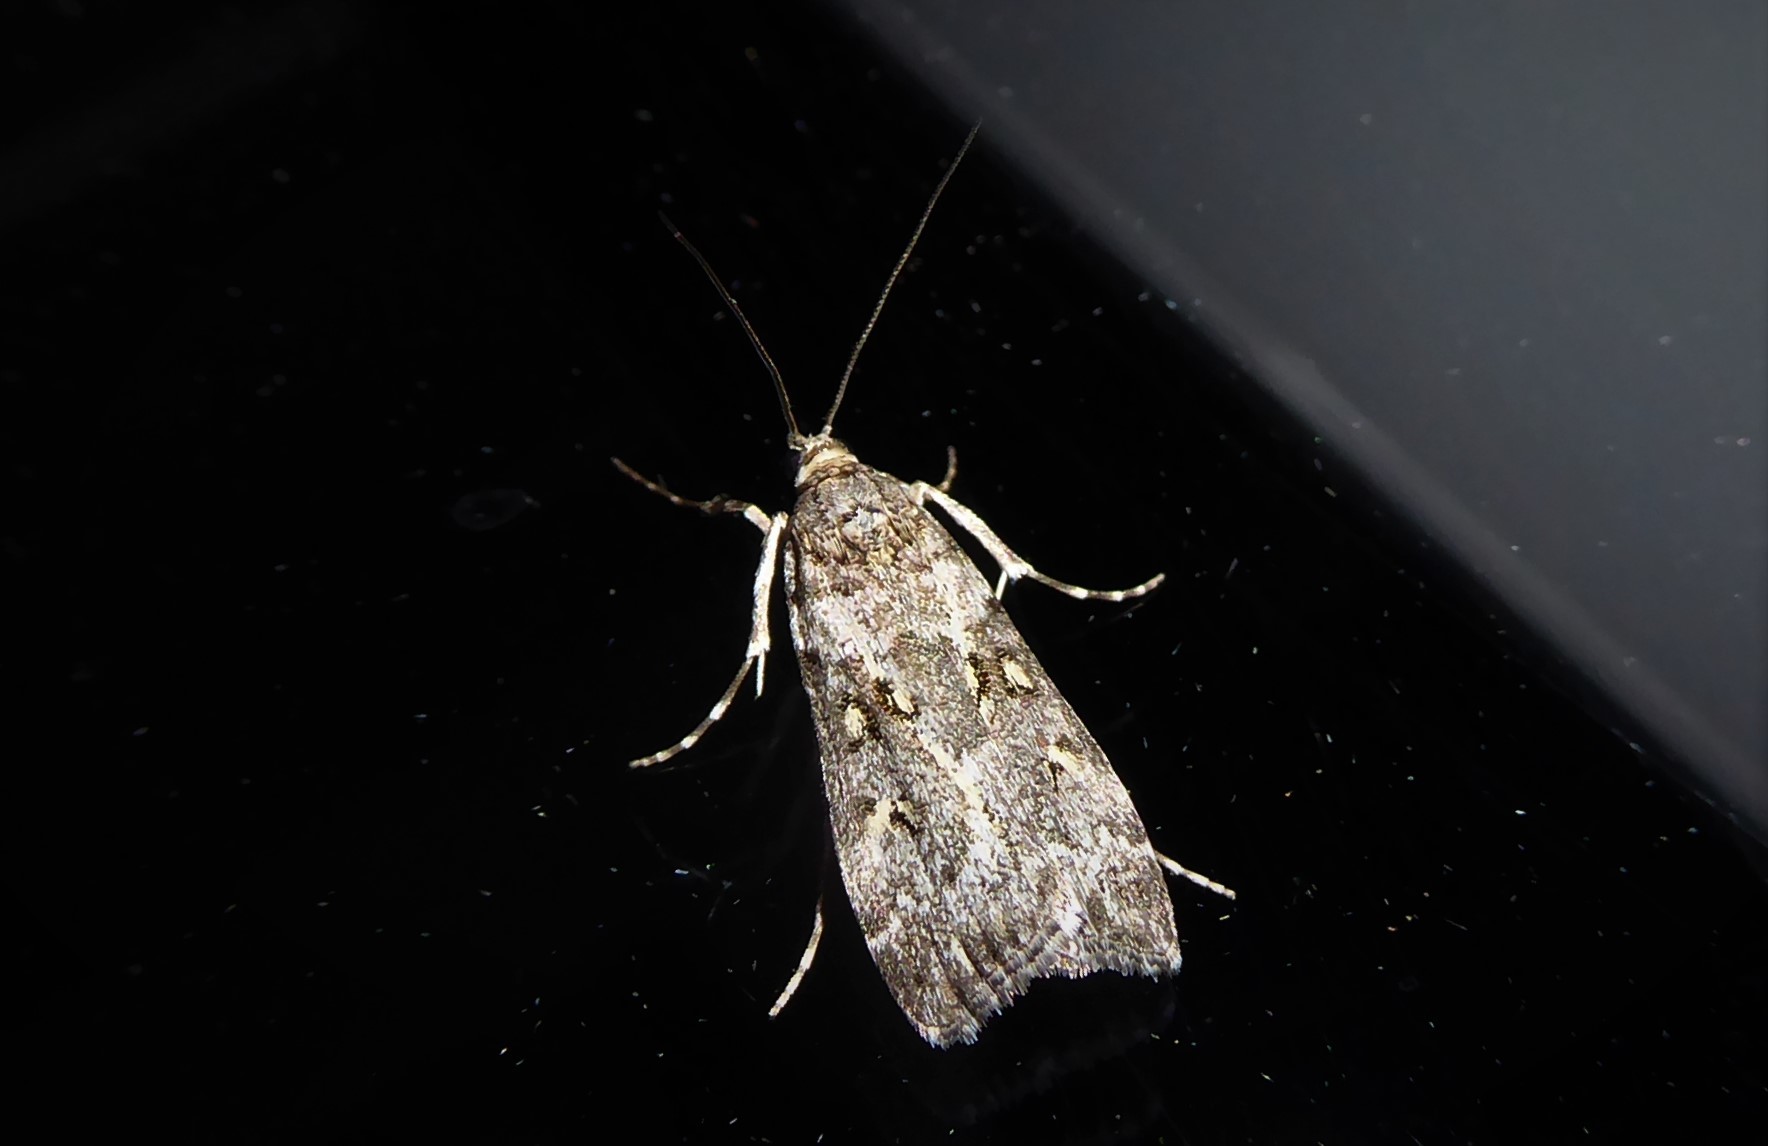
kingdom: Animalia
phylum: Arthropoda
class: Insecta
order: Lepidoptera
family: Crambidae
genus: Eudonia
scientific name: Eudonia diphtheralis
